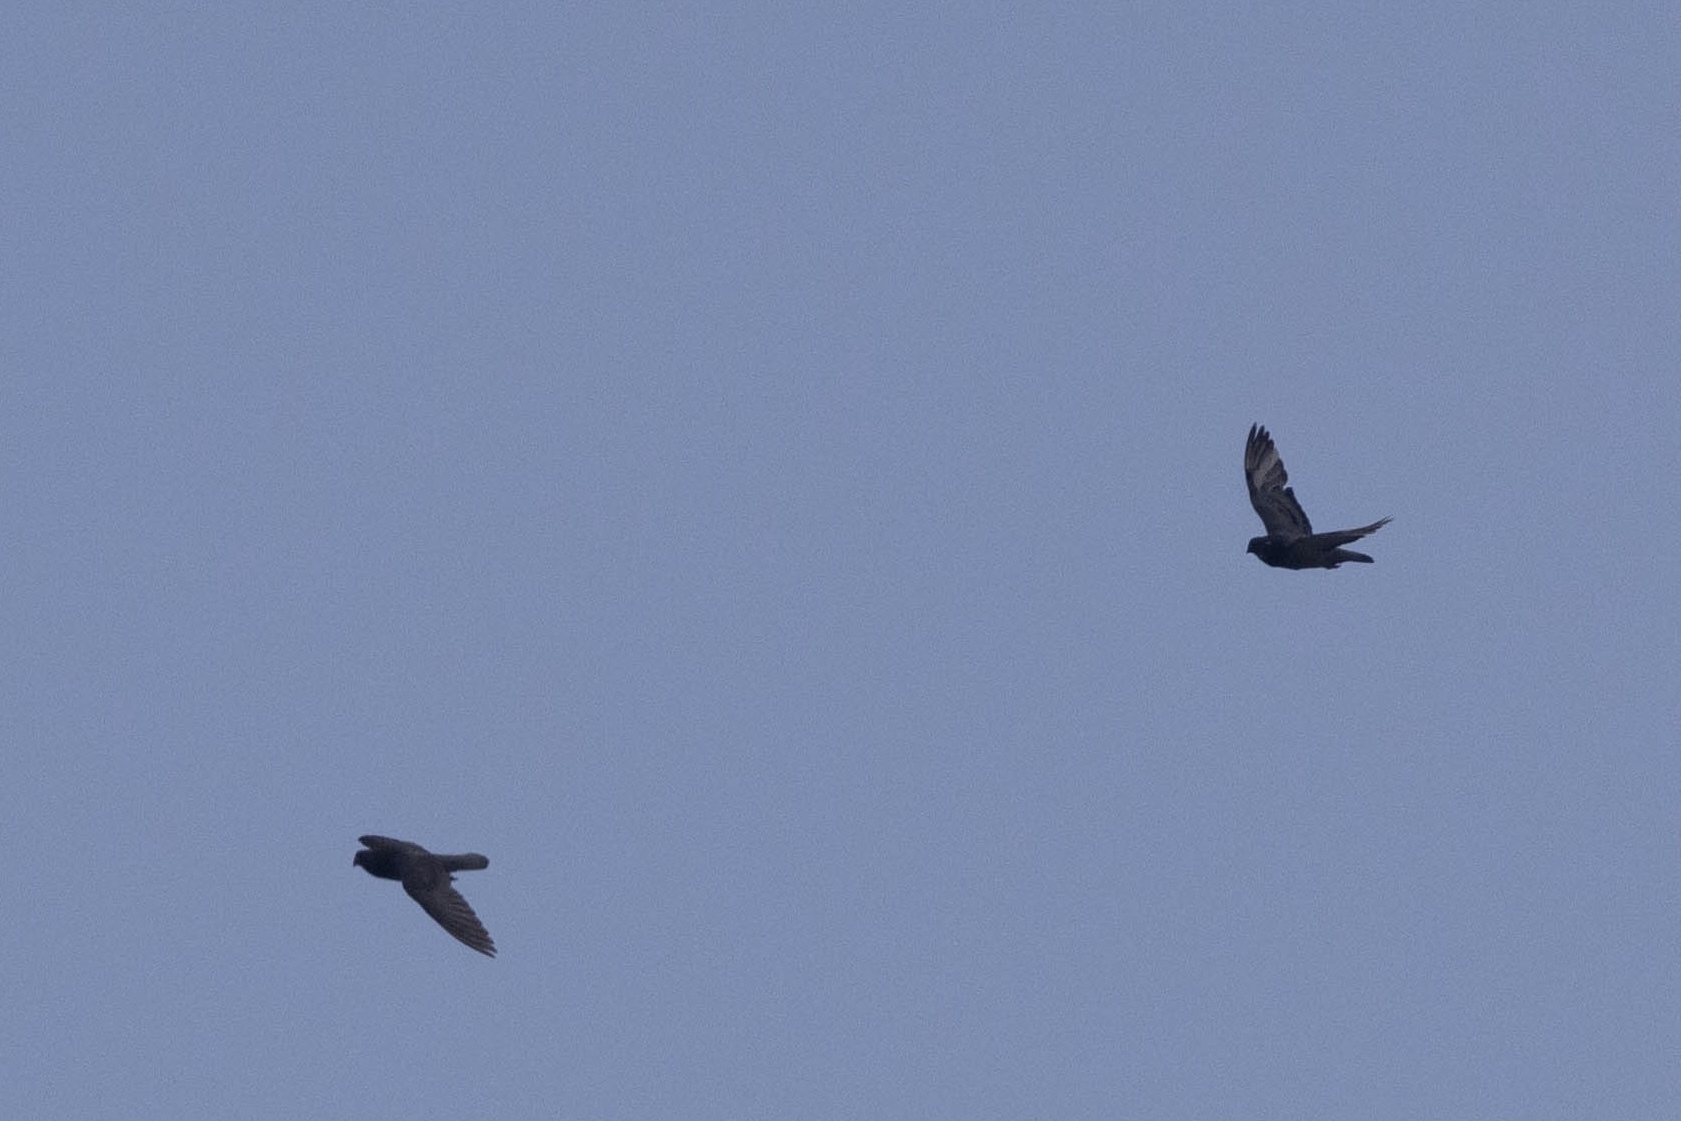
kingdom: Animalia
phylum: Chordata
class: Aves
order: Columbiformes
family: Columbidae
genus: Columba
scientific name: Columba livia
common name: Rock pigeon
